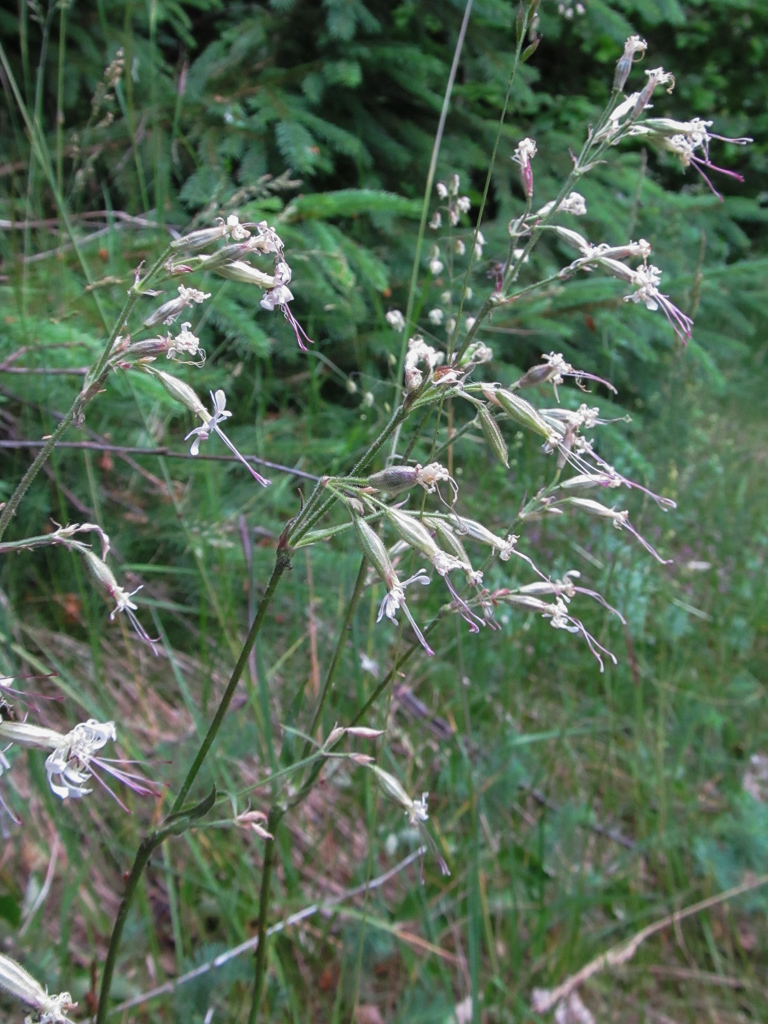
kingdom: Plantae
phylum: Tracheophyta
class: Magnoliopsida
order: Caryophyllales
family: Caryophyllaceae
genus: Silene
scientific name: Silene nutans
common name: Nottingham catchfly
